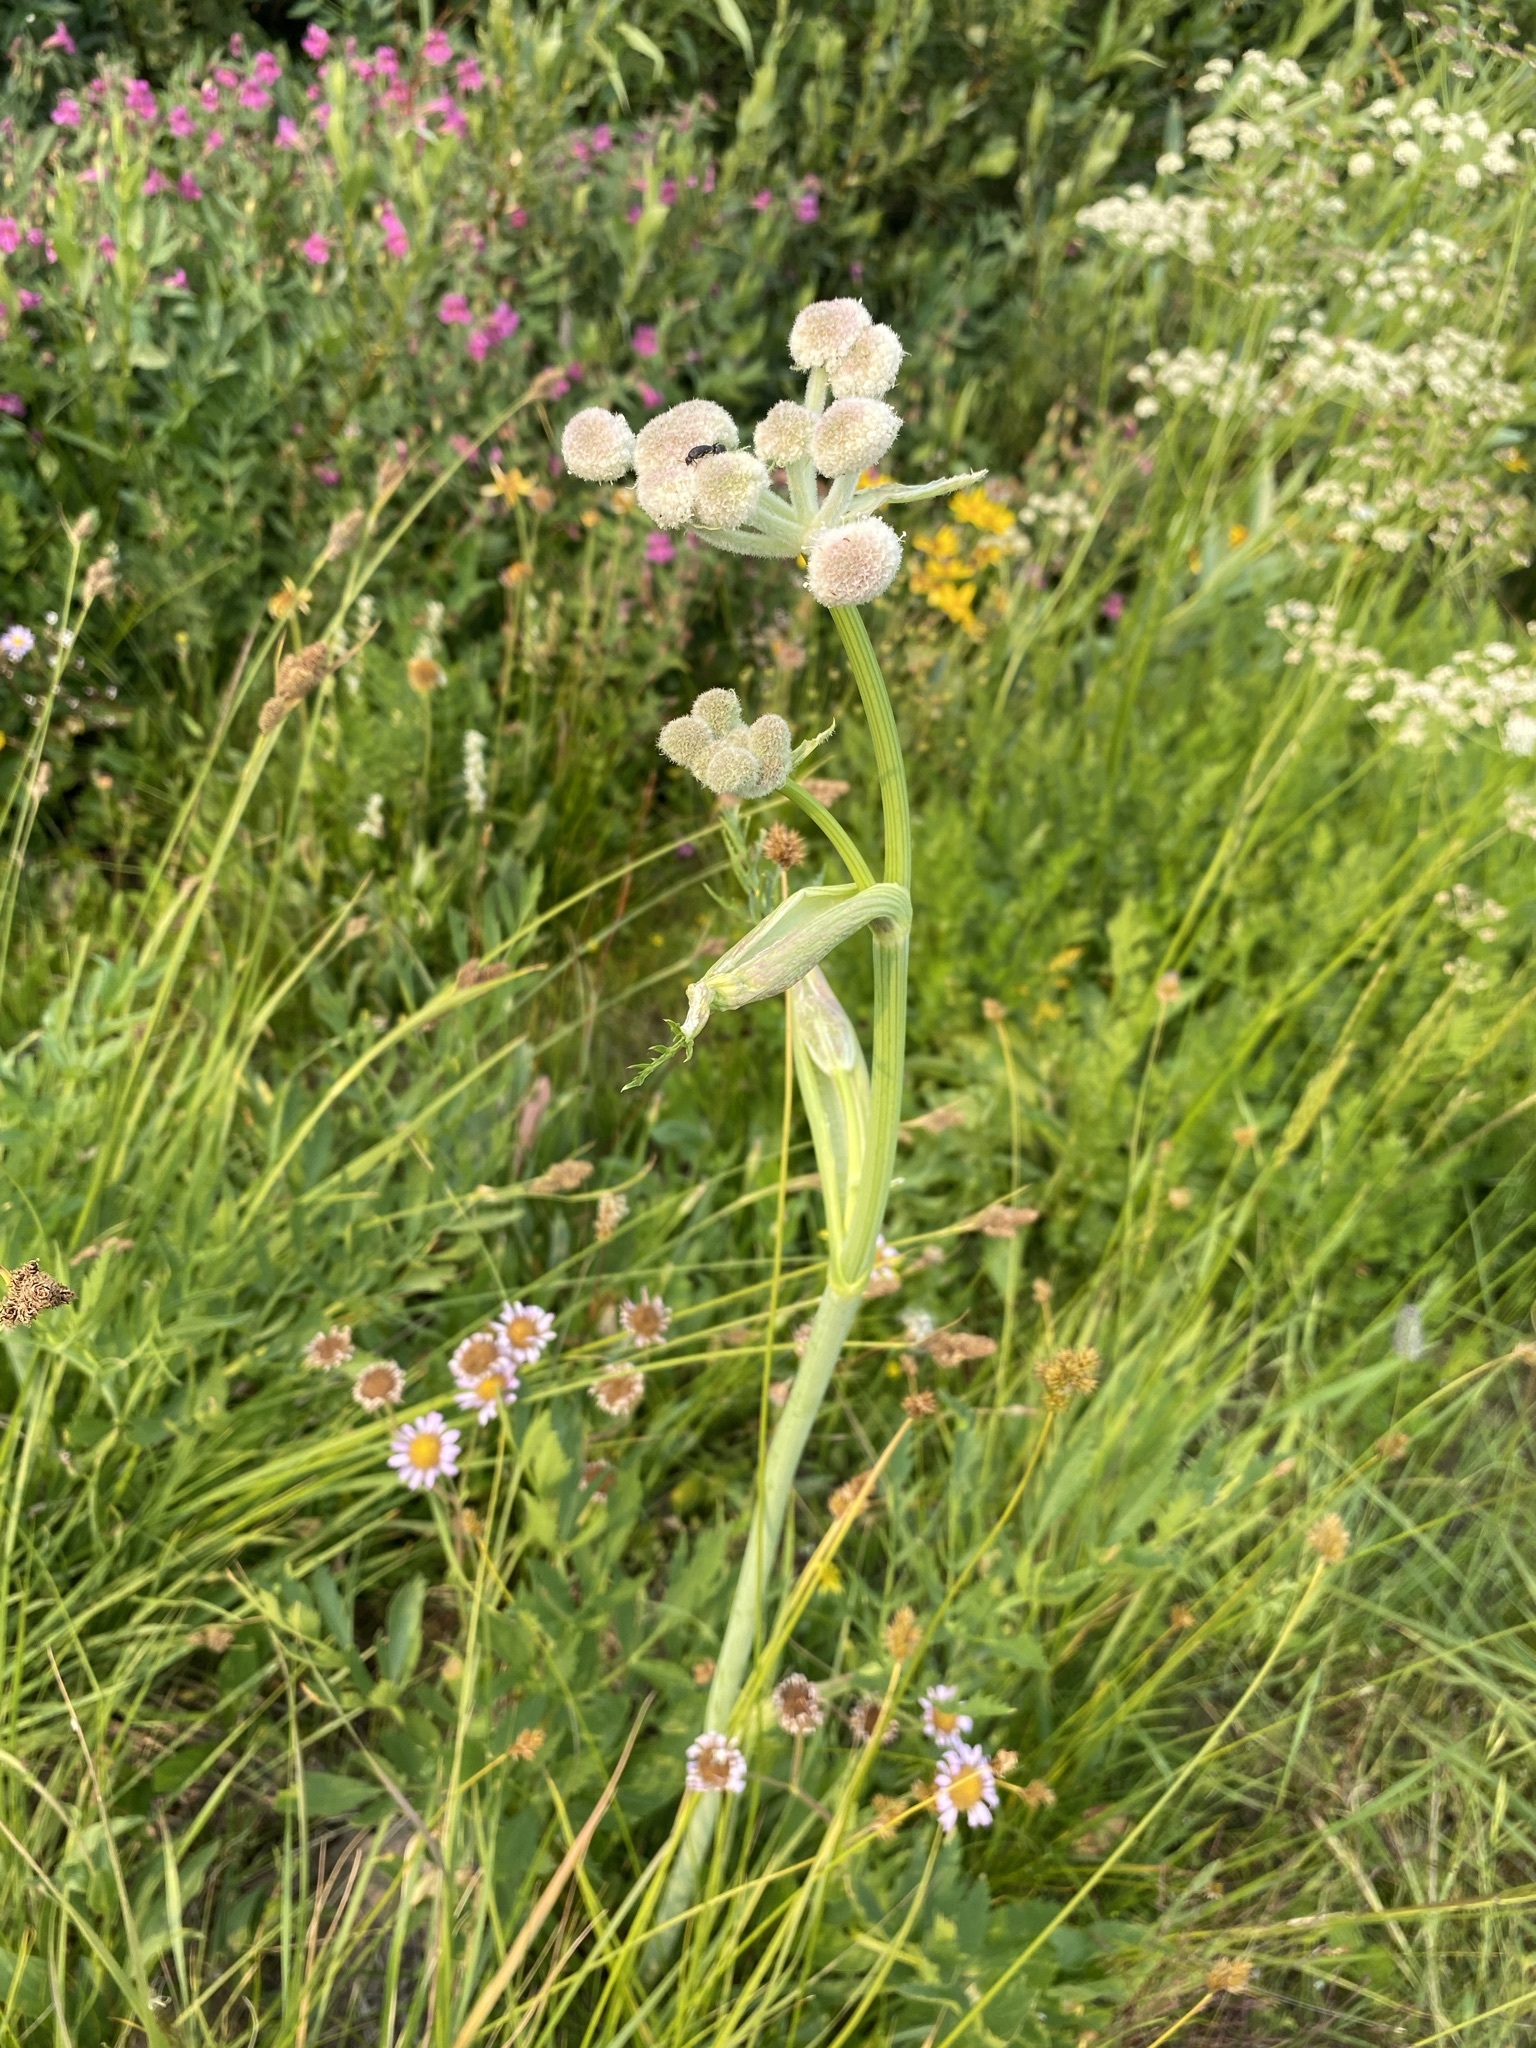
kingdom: Plantae
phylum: Tracheophyta
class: Magnoliopsida
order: Apiales
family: Apiaceae
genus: Angelica
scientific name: Angelica capitellata
